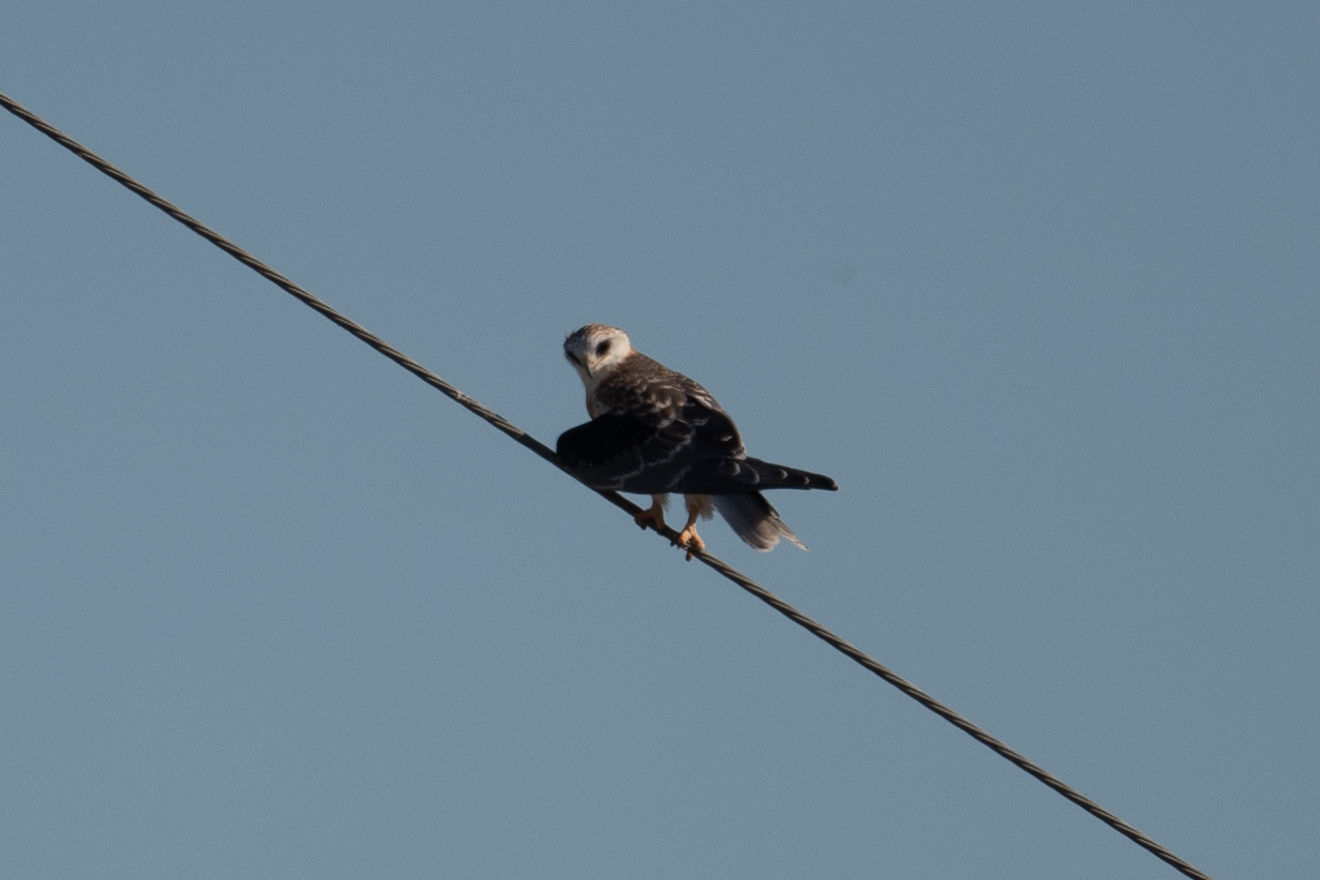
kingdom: Animalia
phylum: Chordata
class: Aves
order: Accipitriformes
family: Accipitridae
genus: Elanus
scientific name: Elanus leucurus
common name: White-tailed kite
